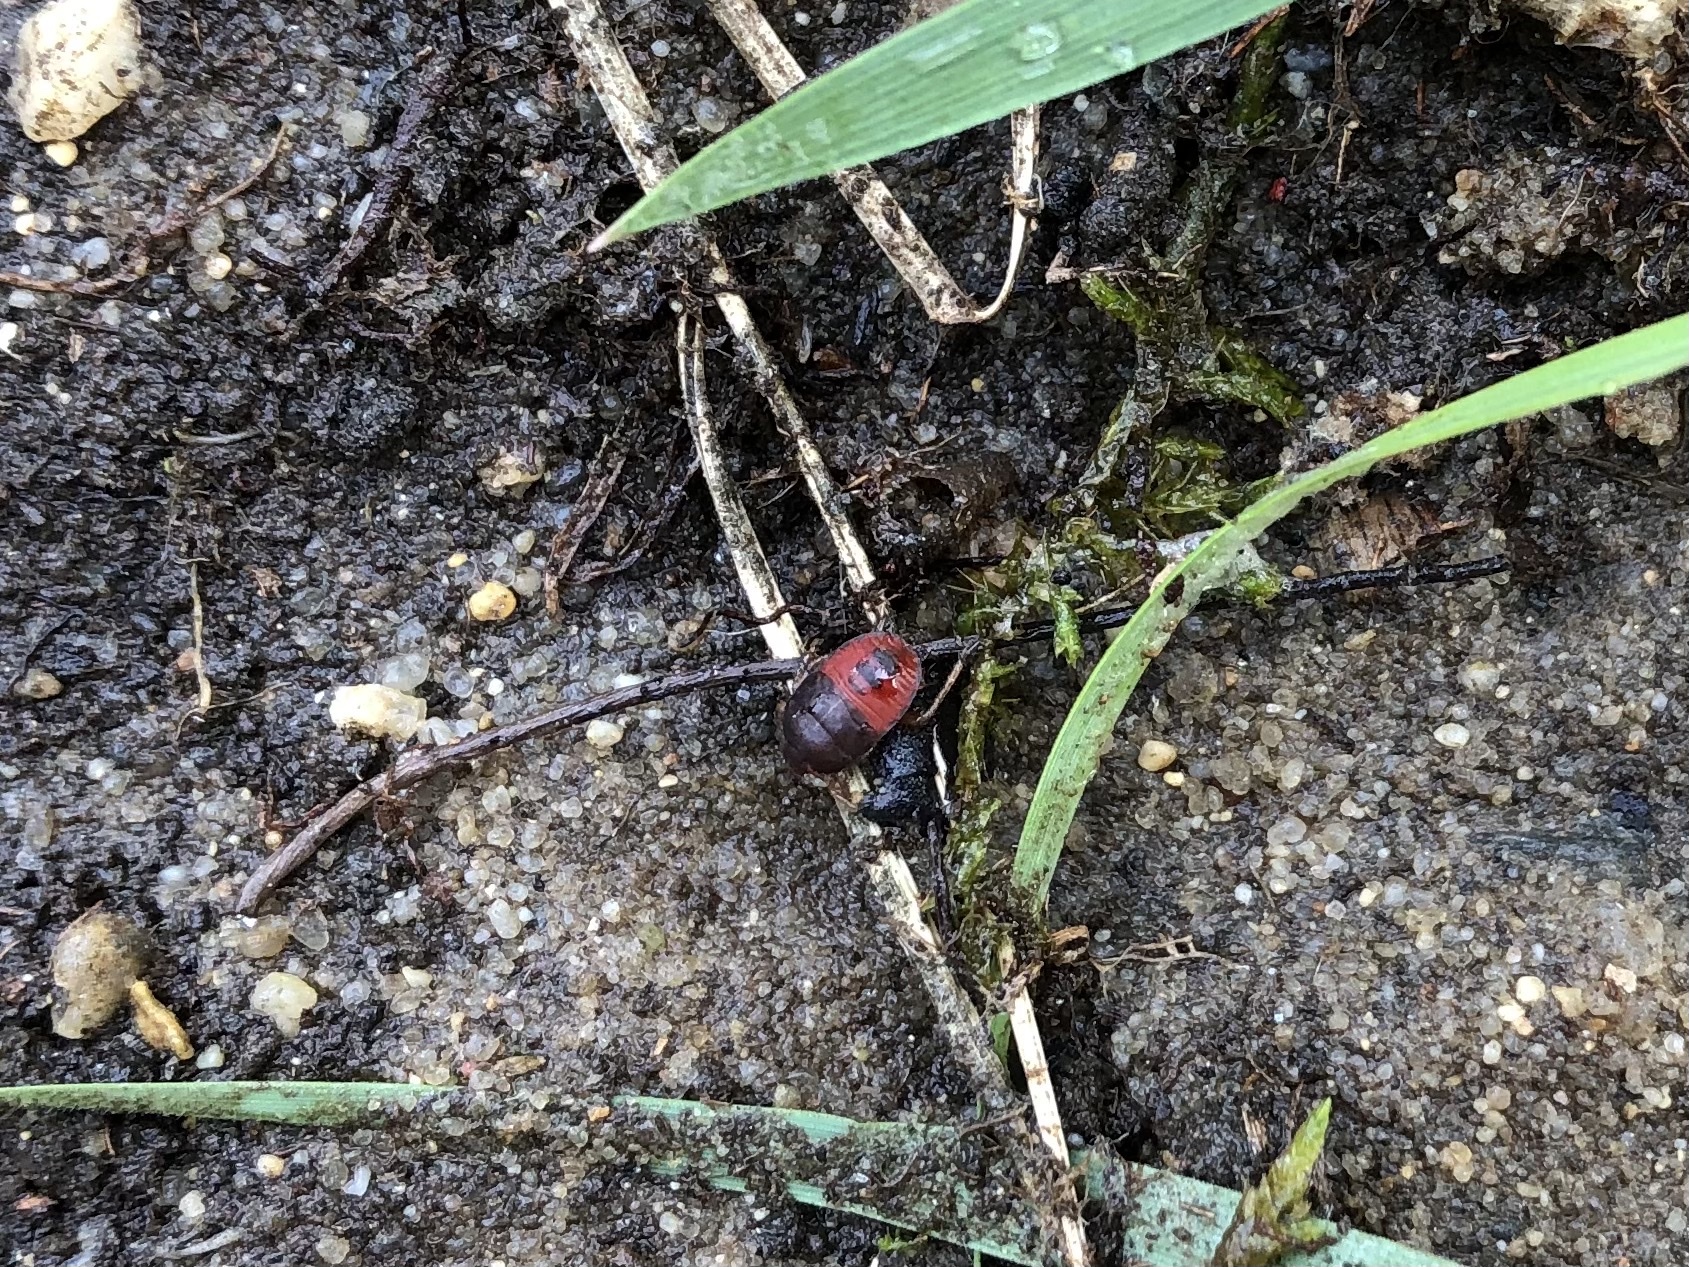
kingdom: Animalia
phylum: Arthropoda
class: Insecta
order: Hemiptera
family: Cydnidae
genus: Cydnus
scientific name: Cydnus aterrimus
